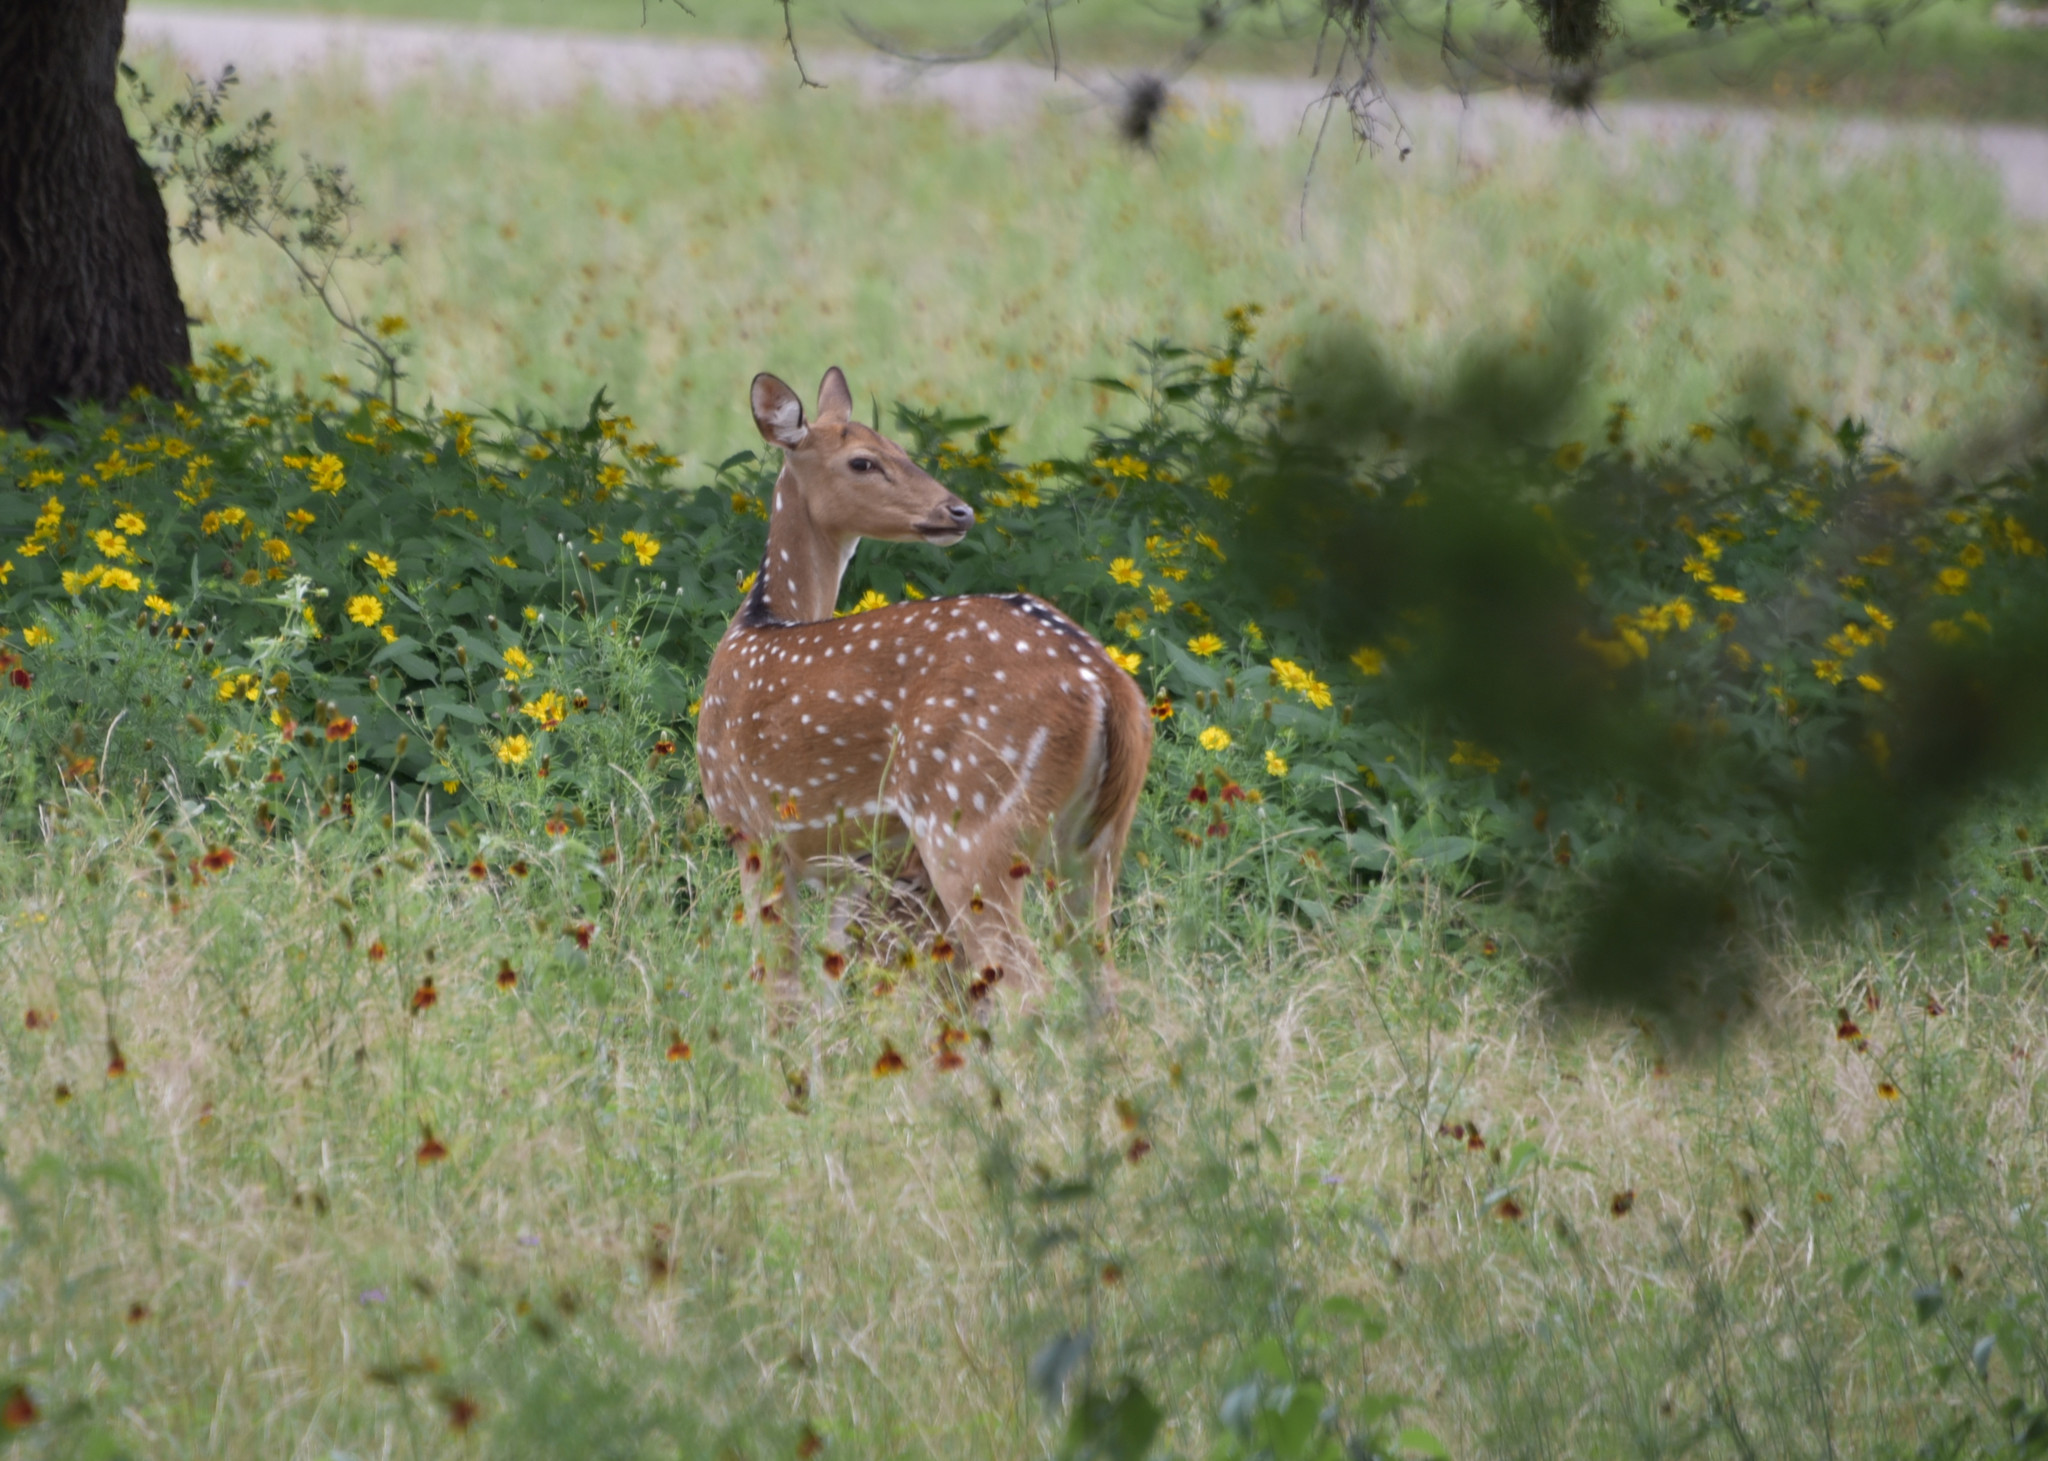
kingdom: Animalia
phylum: Chordata
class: Mammalia
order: Artiodactyla
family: Cervidae
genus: Axis
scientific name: Axis axis
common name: Chital
